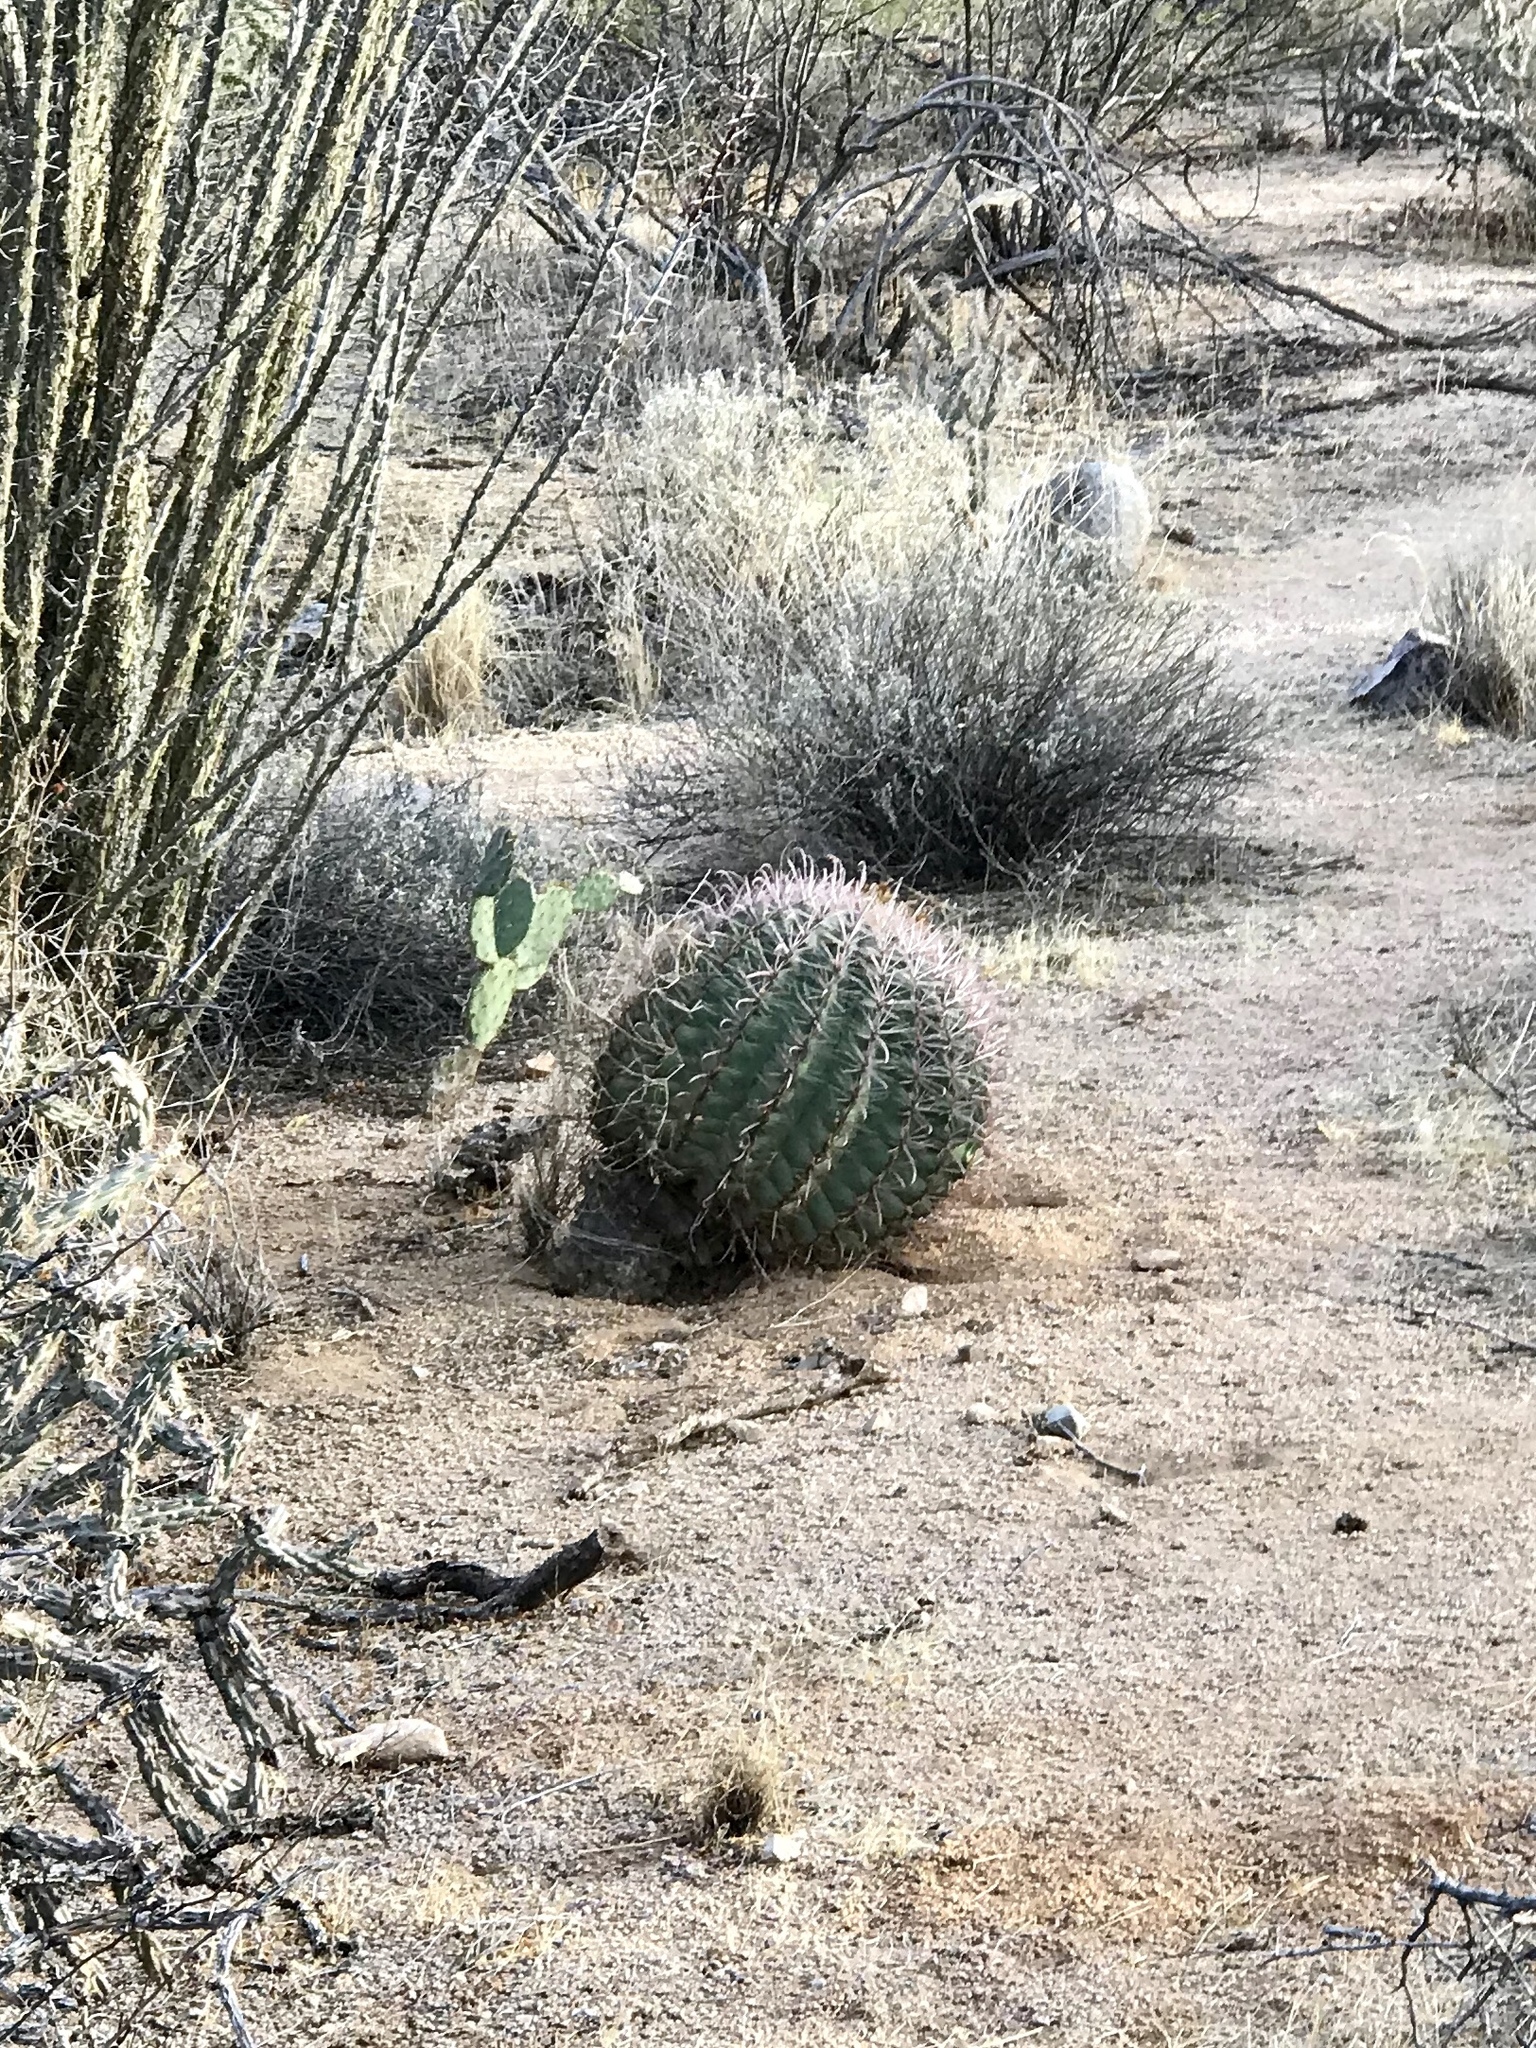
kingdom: Plantae
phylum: Tracheophyta
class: Magnoliopsida
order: Caryophyllales
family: Cactaceae
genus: Ferocactus
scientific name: Ferocactus wislizeni
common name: Candy barrel cactus
